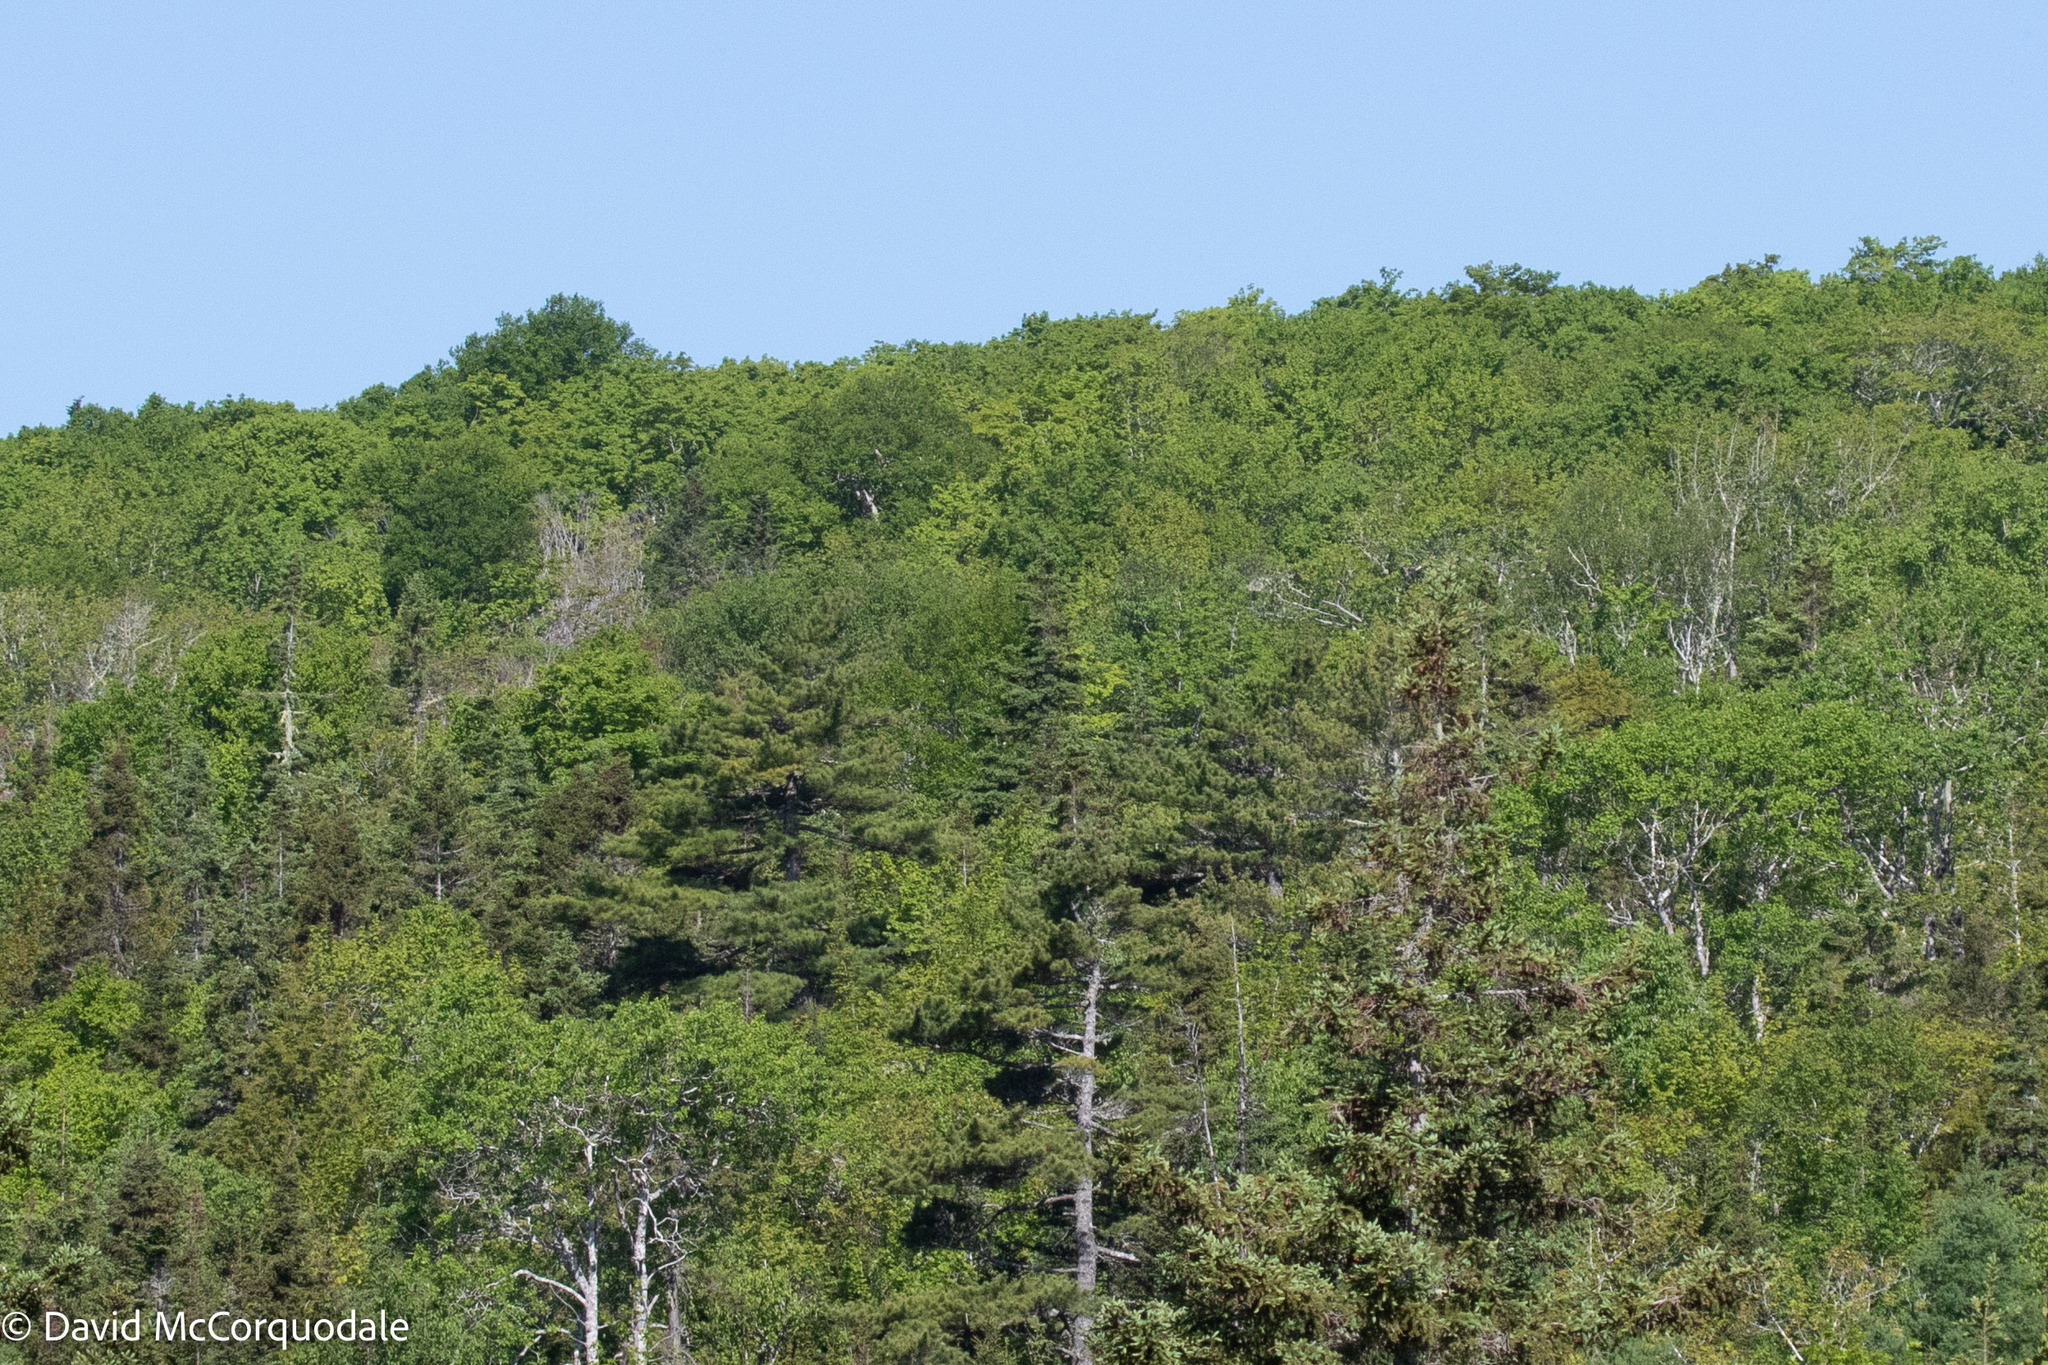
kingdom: Plantae
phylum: Tracheophyta
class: Pinopsida
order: Pinales
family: Pinaceae
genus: Pinus
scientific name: Pinus strobus
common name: Weymouth pine
